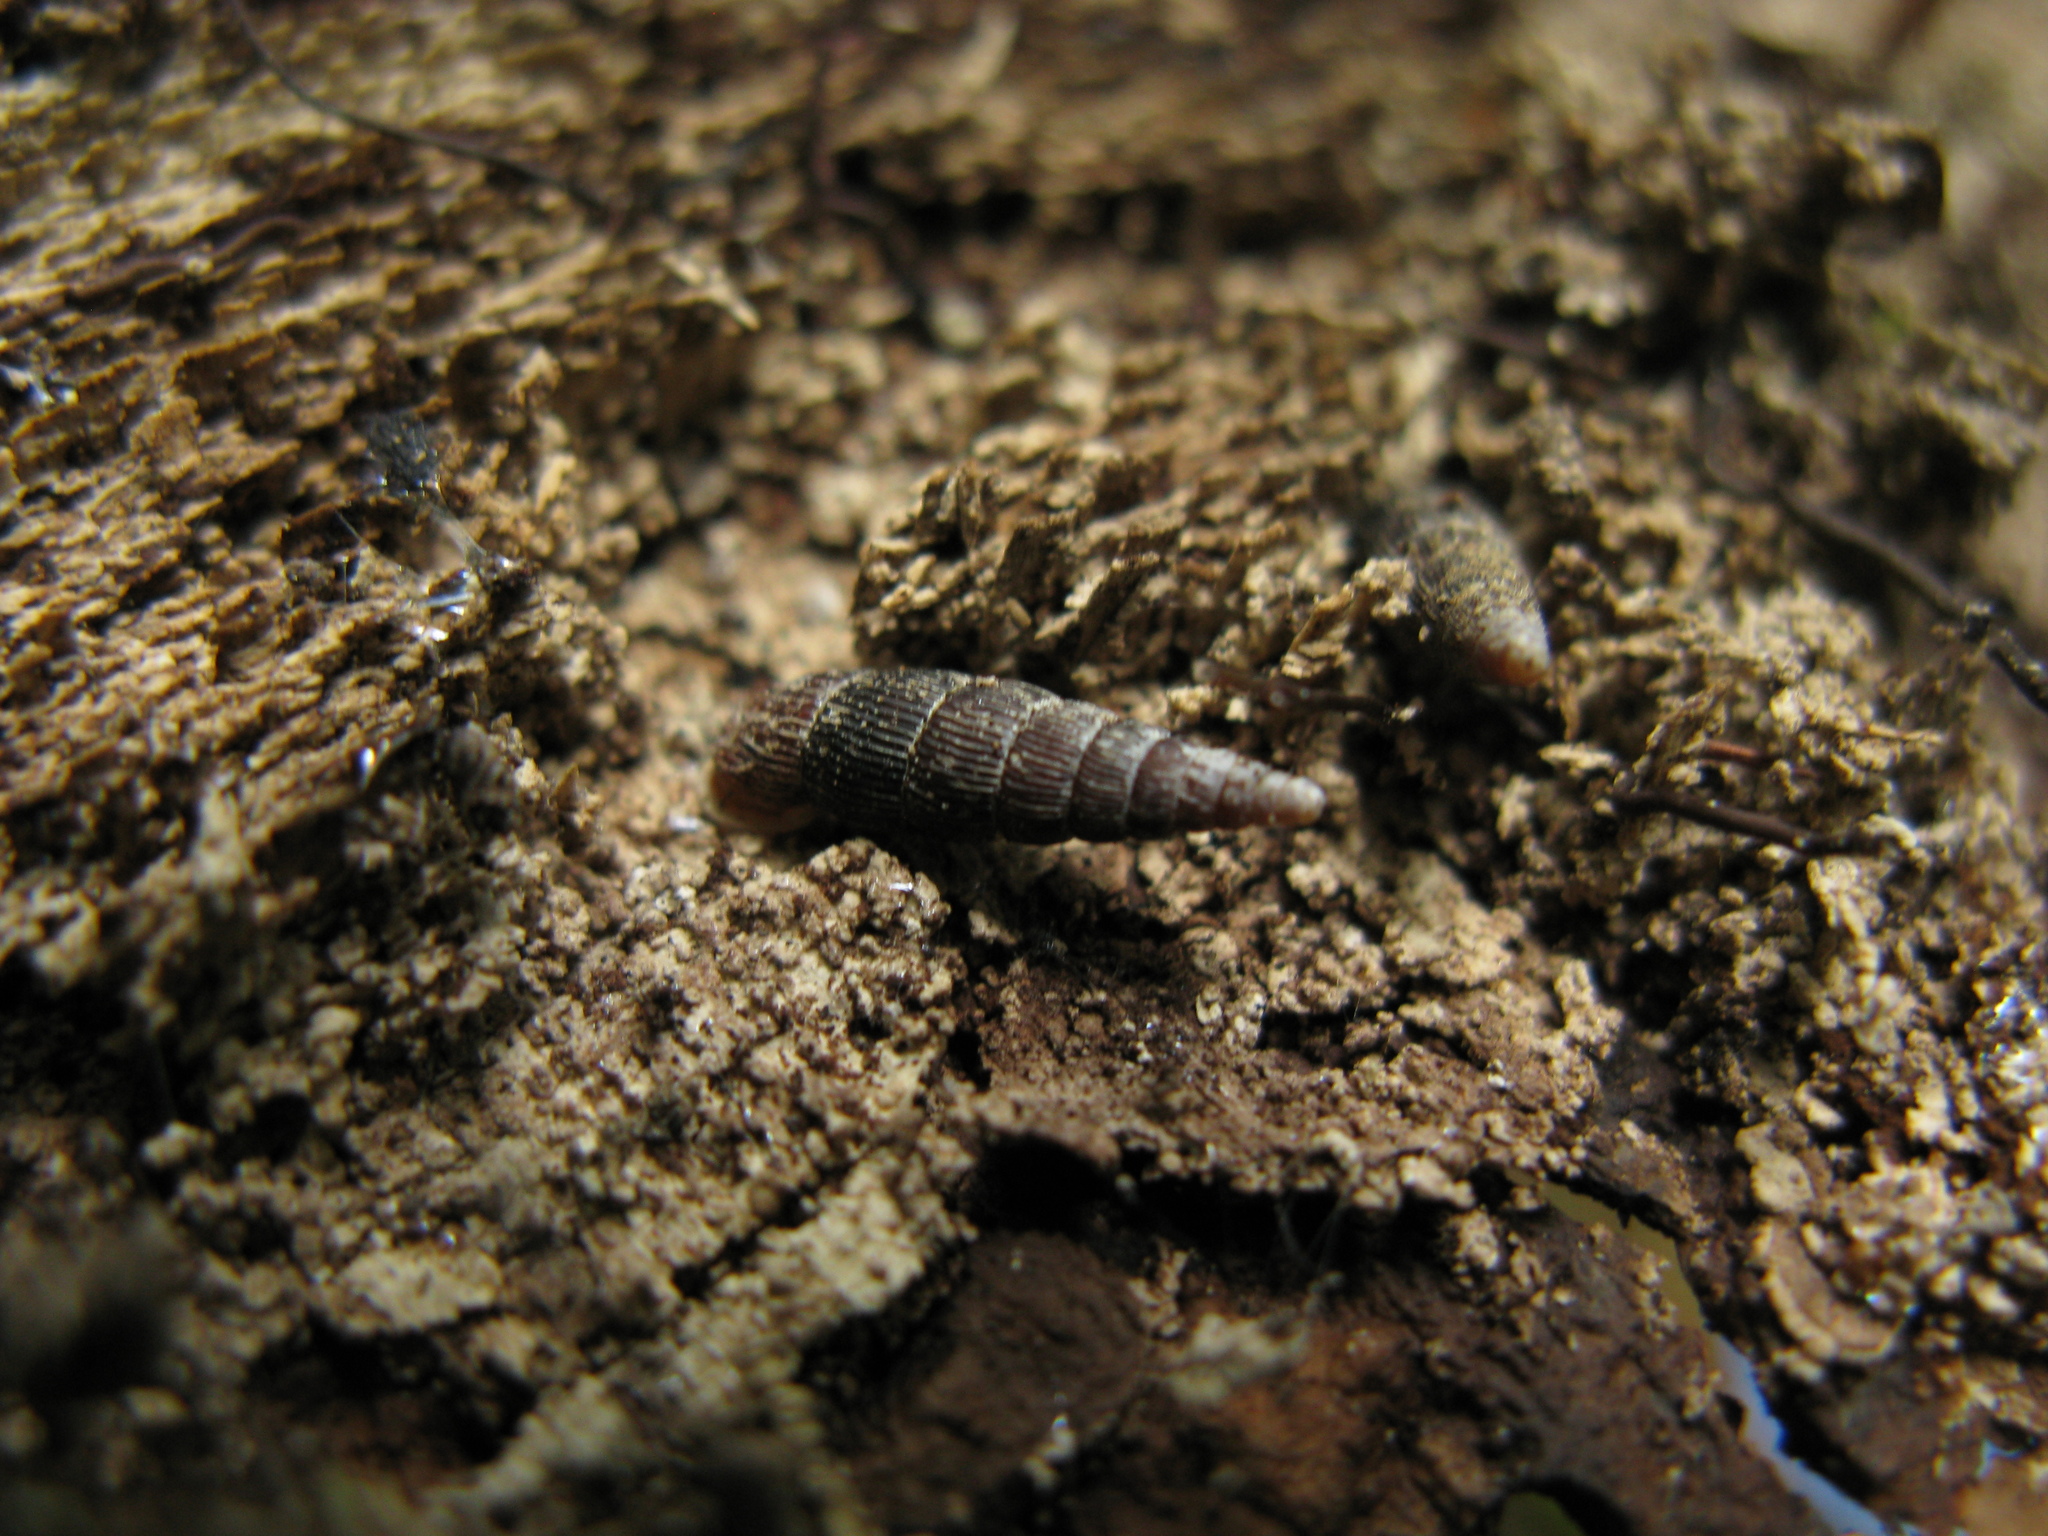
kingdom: Animalia
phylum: Mollusca
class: Gastropoda
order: Stylommatophora
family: Clausiliidae
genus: Macrogastra
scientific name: Macrogastra borealis
